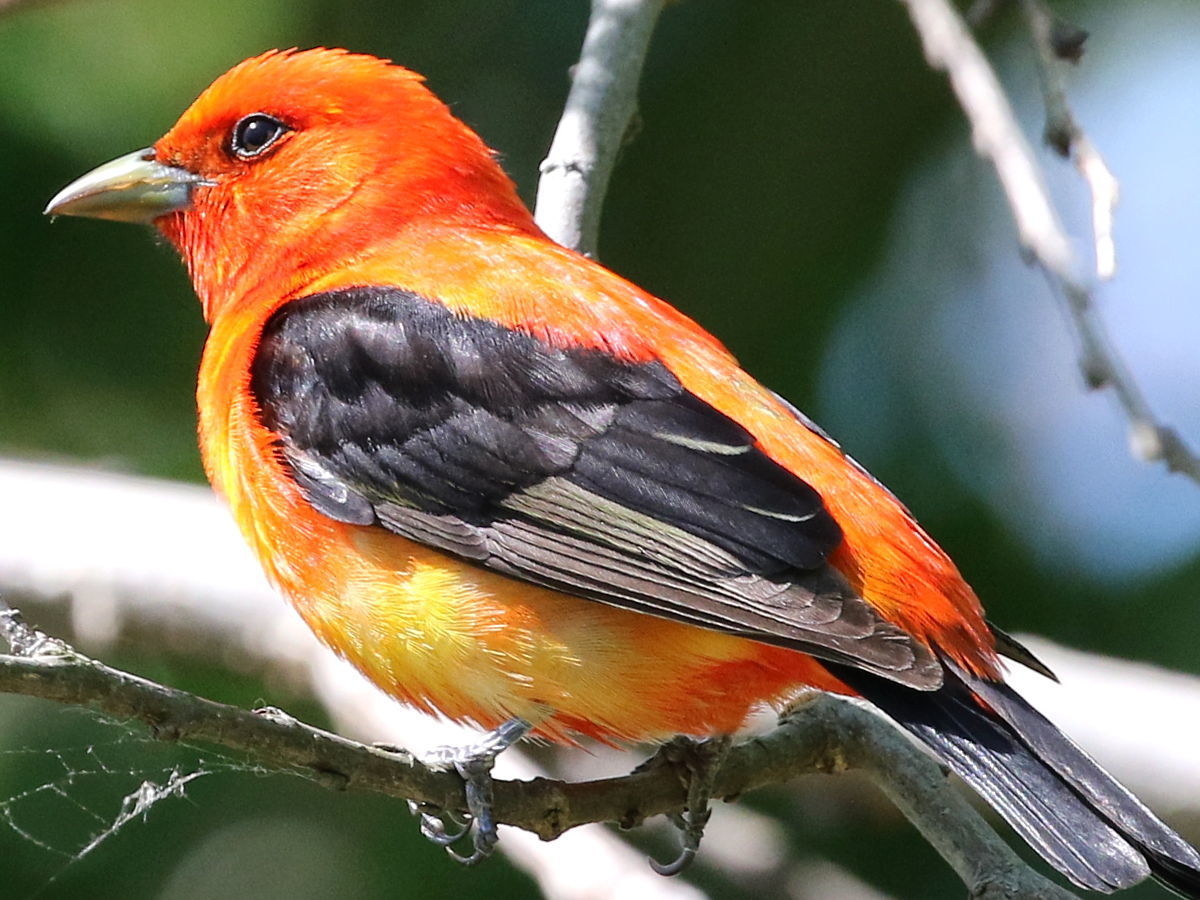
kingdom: Animalia
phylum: Chordata
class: Aves
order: Passeriformes
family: Cardinalidae
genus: Piranga
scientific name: Piranga olivacea
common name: Scarlet tanager
